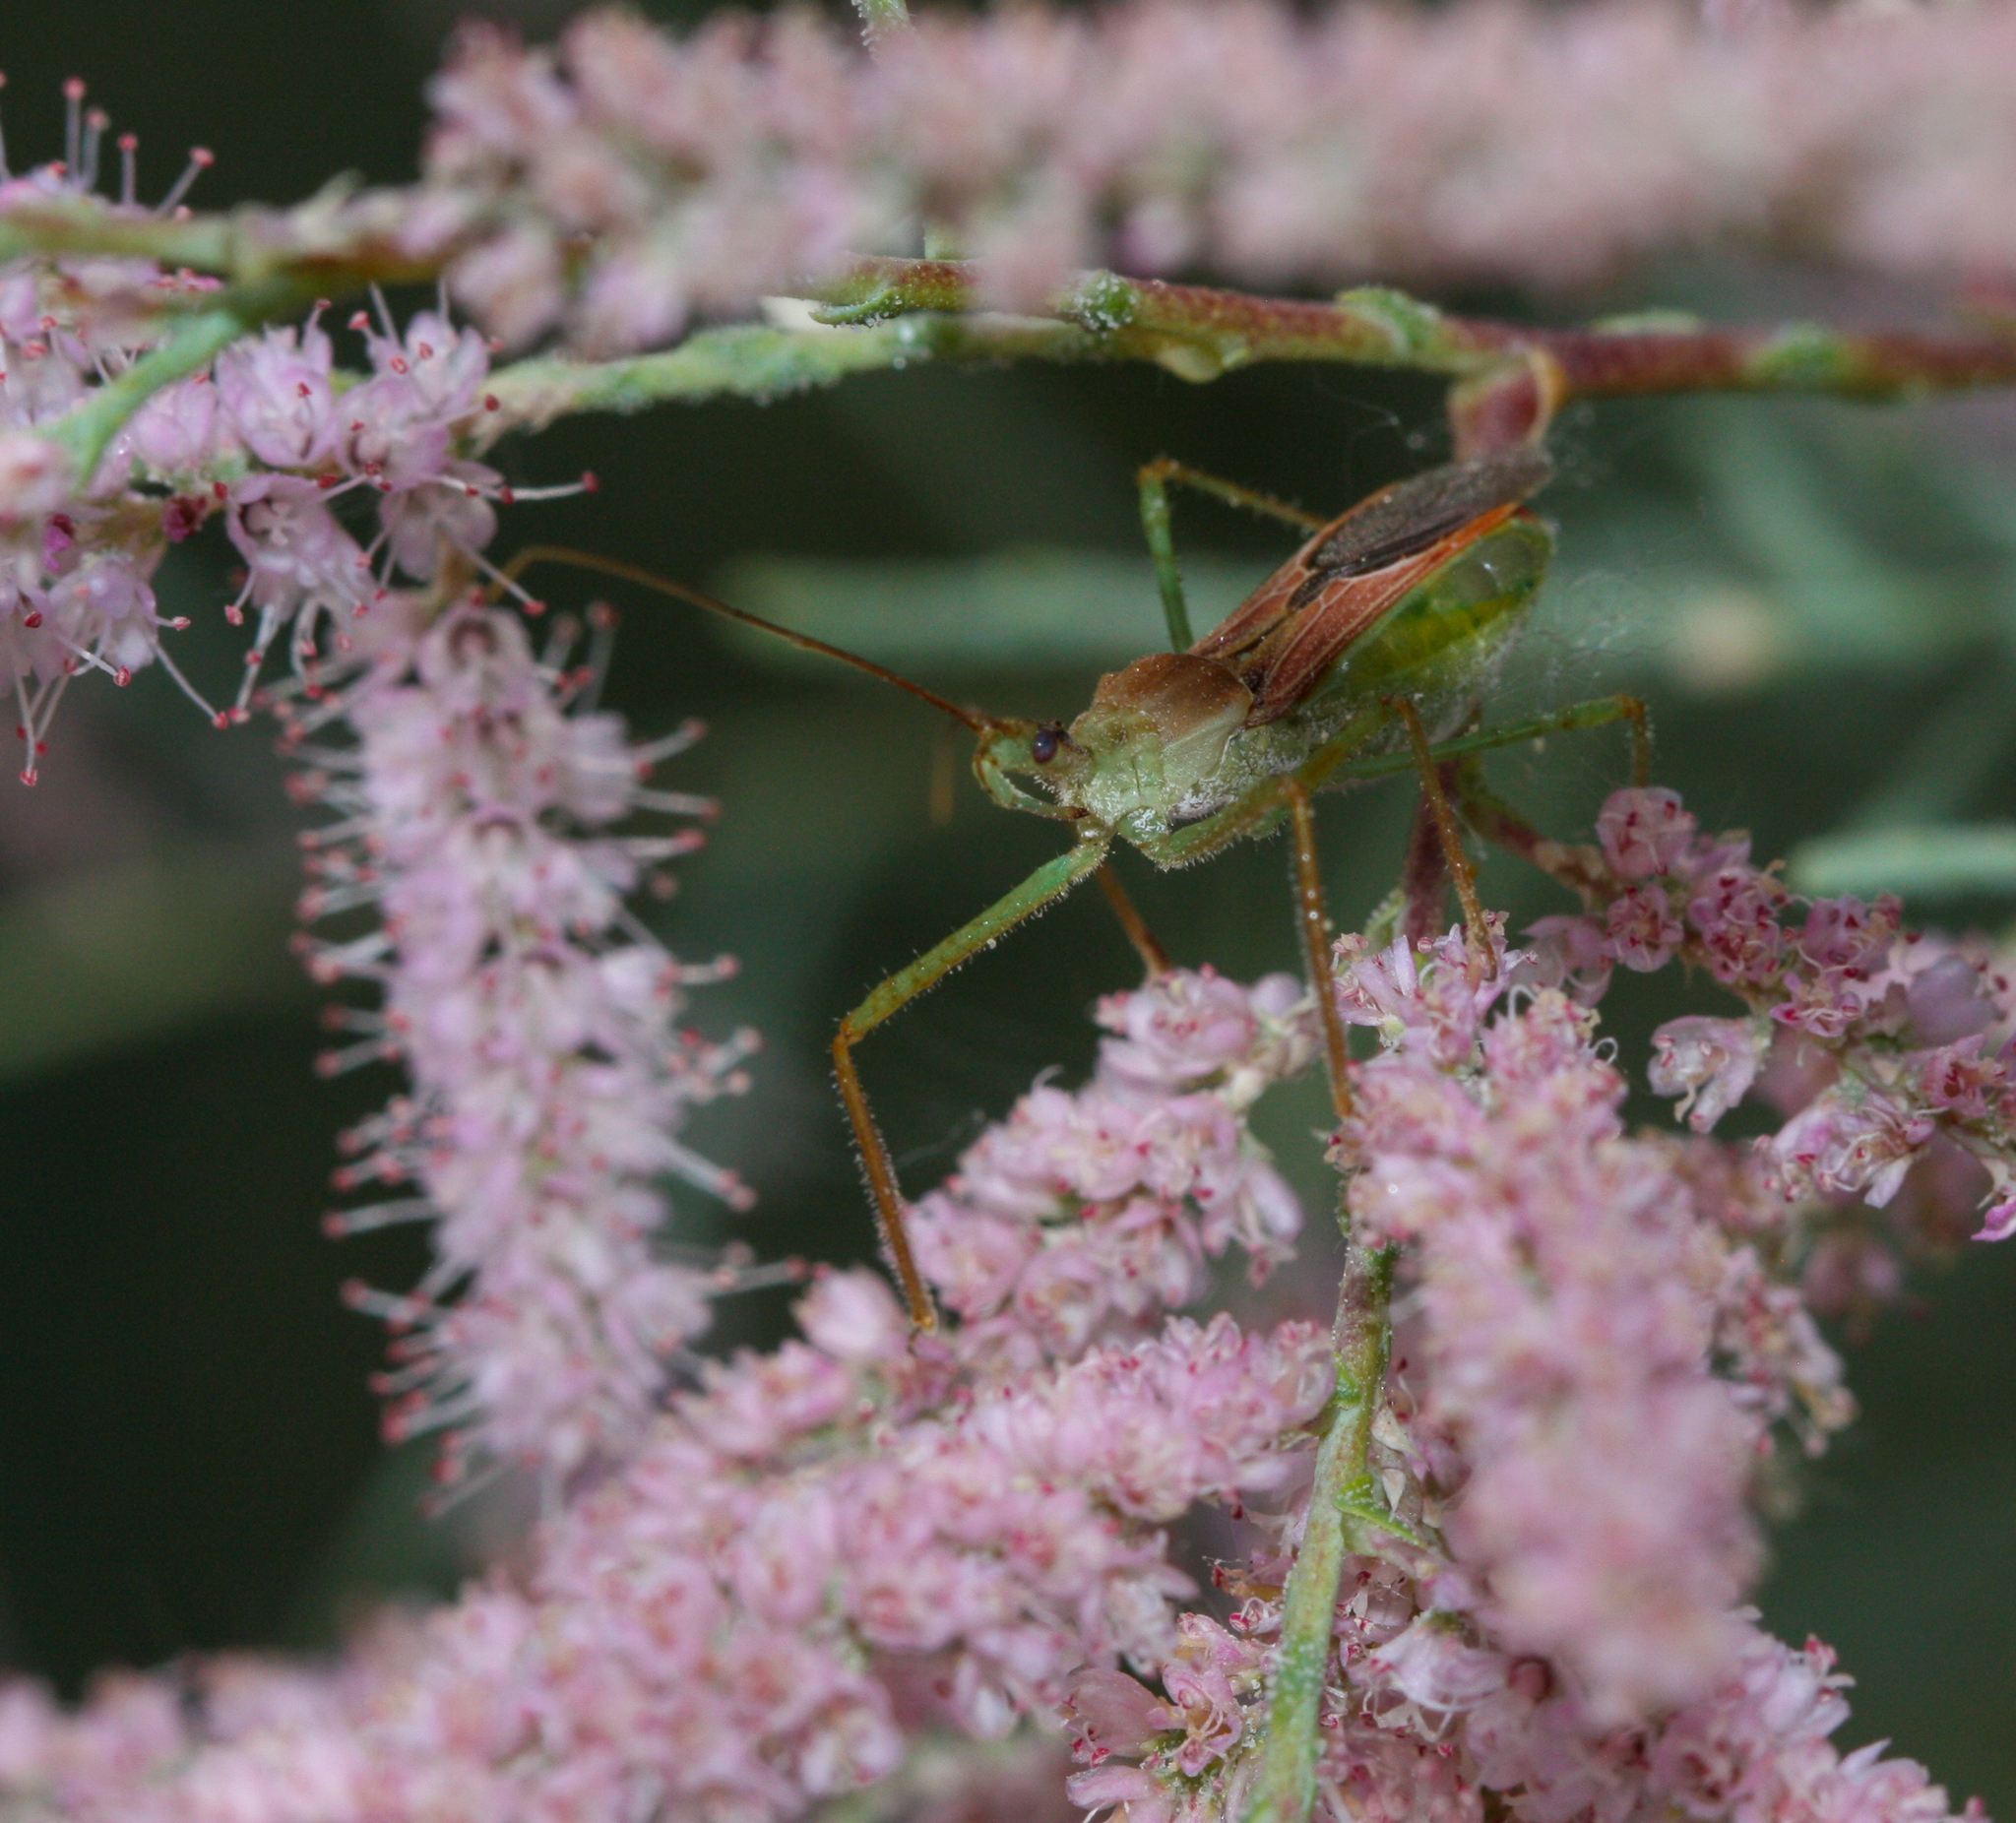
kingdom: Animalia
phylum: Arthropoda
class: Insecta
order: Hemiptera
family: Reduviidae
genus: Zelus
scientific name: Zelus renardii
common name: Assassin bug
